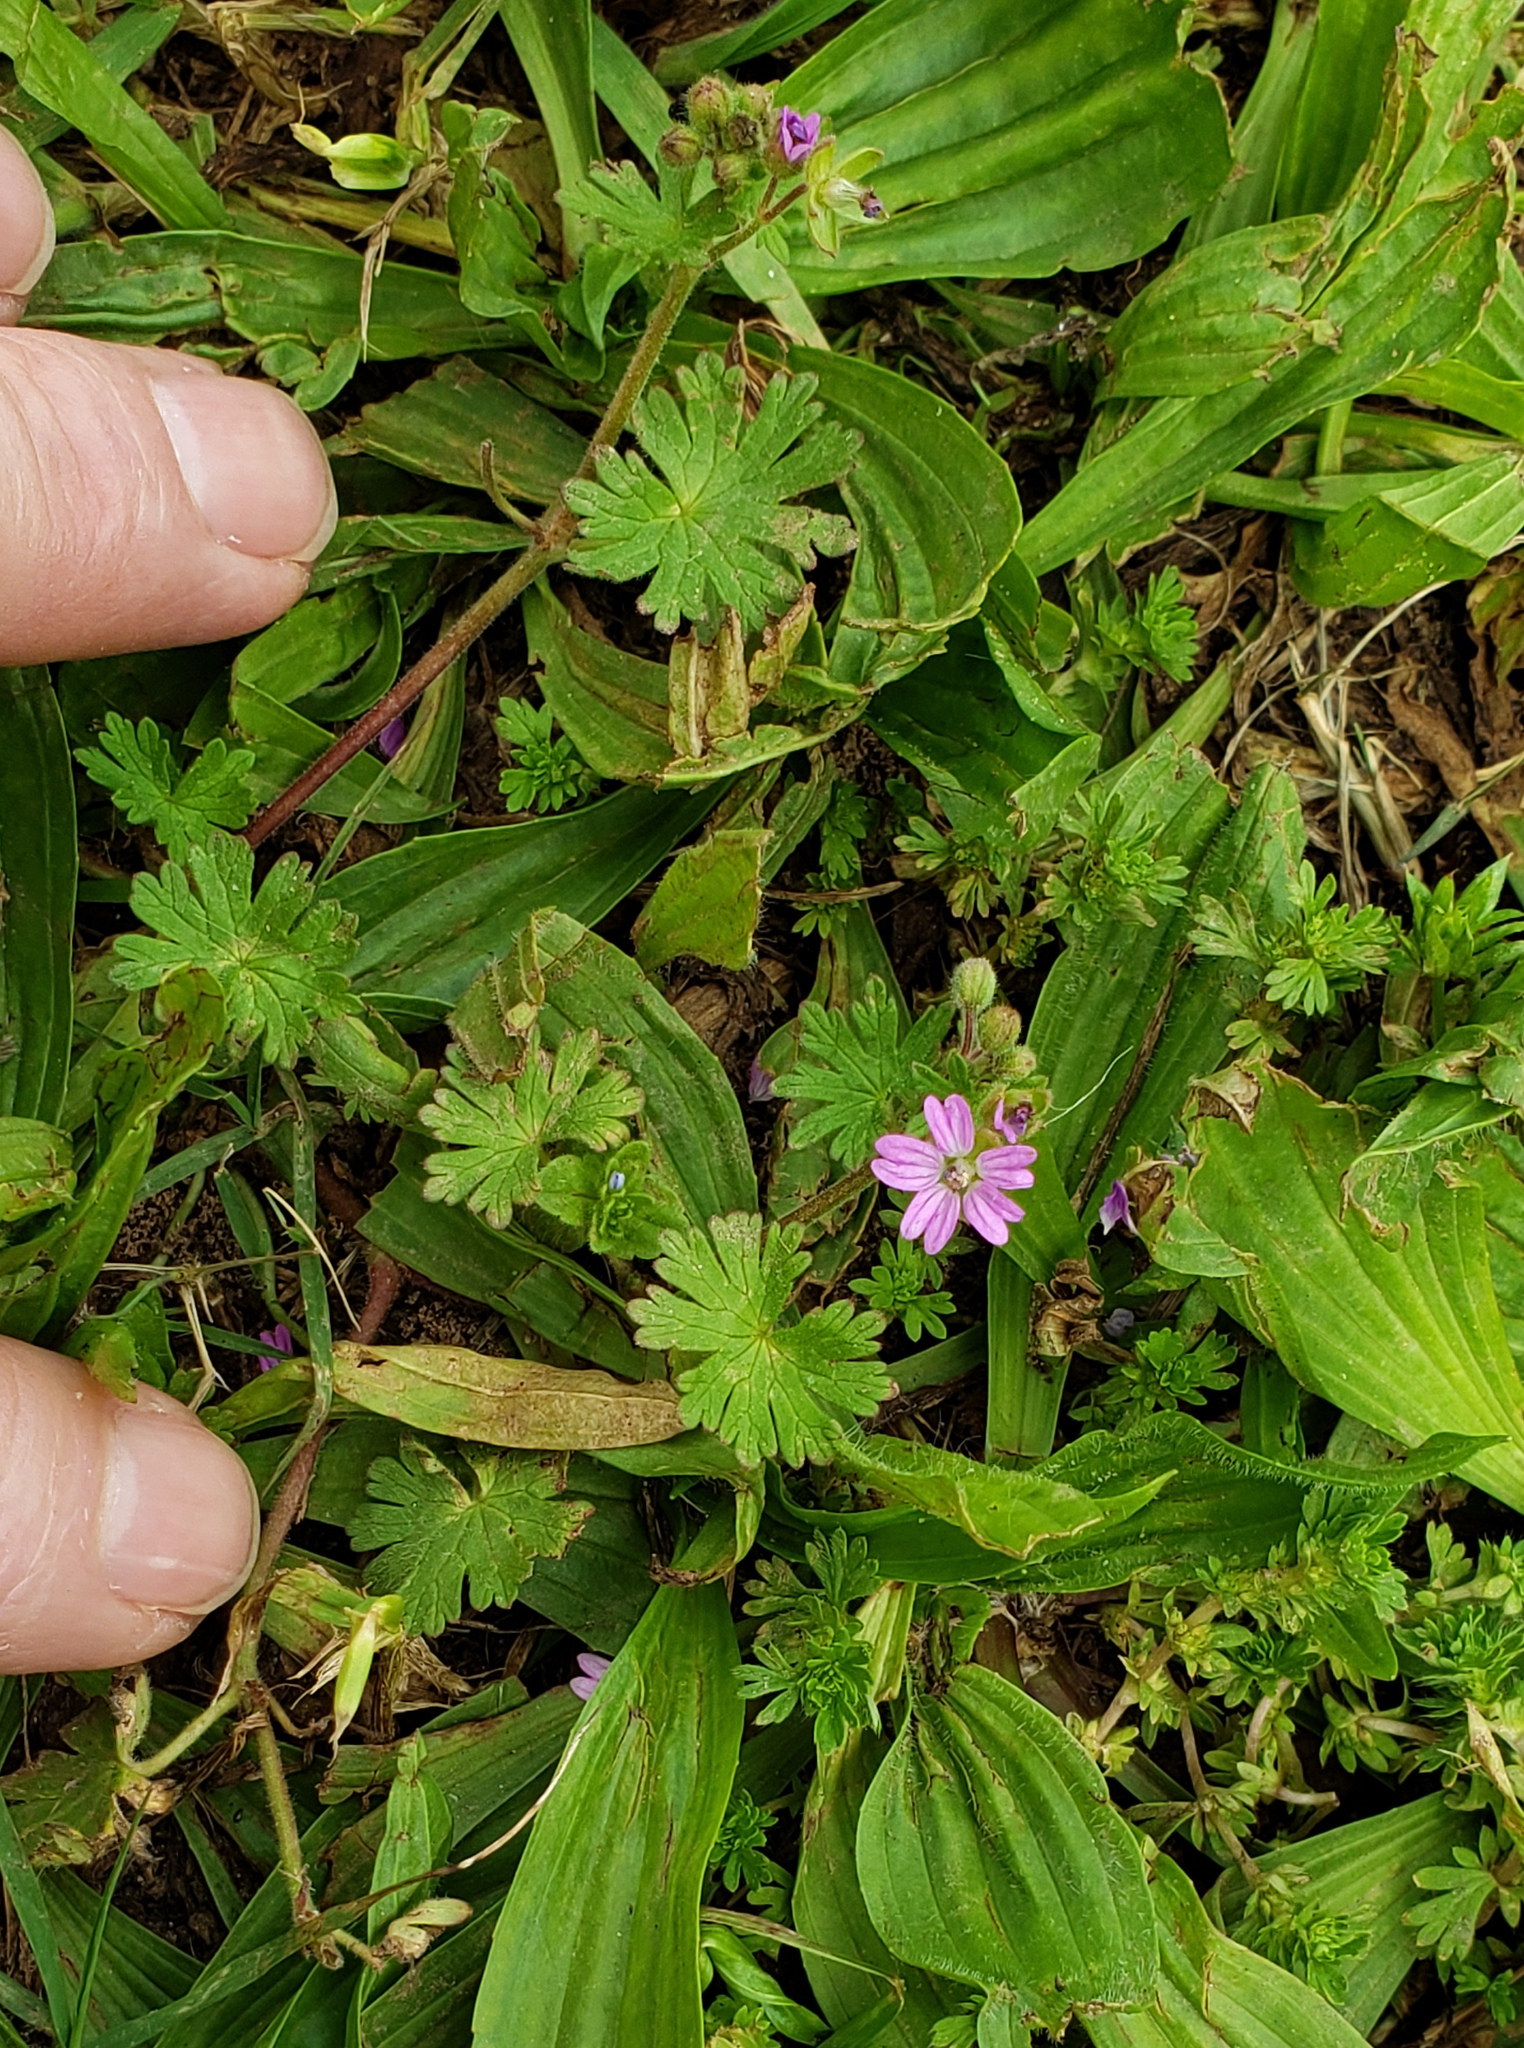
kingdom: Plantae
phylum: Tracheophyta
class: Magnoliopsida
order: Geraniales
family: Geraniaceae
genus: Geranium
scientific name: Geranium molle
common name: Dove's-foot crane's-bill
